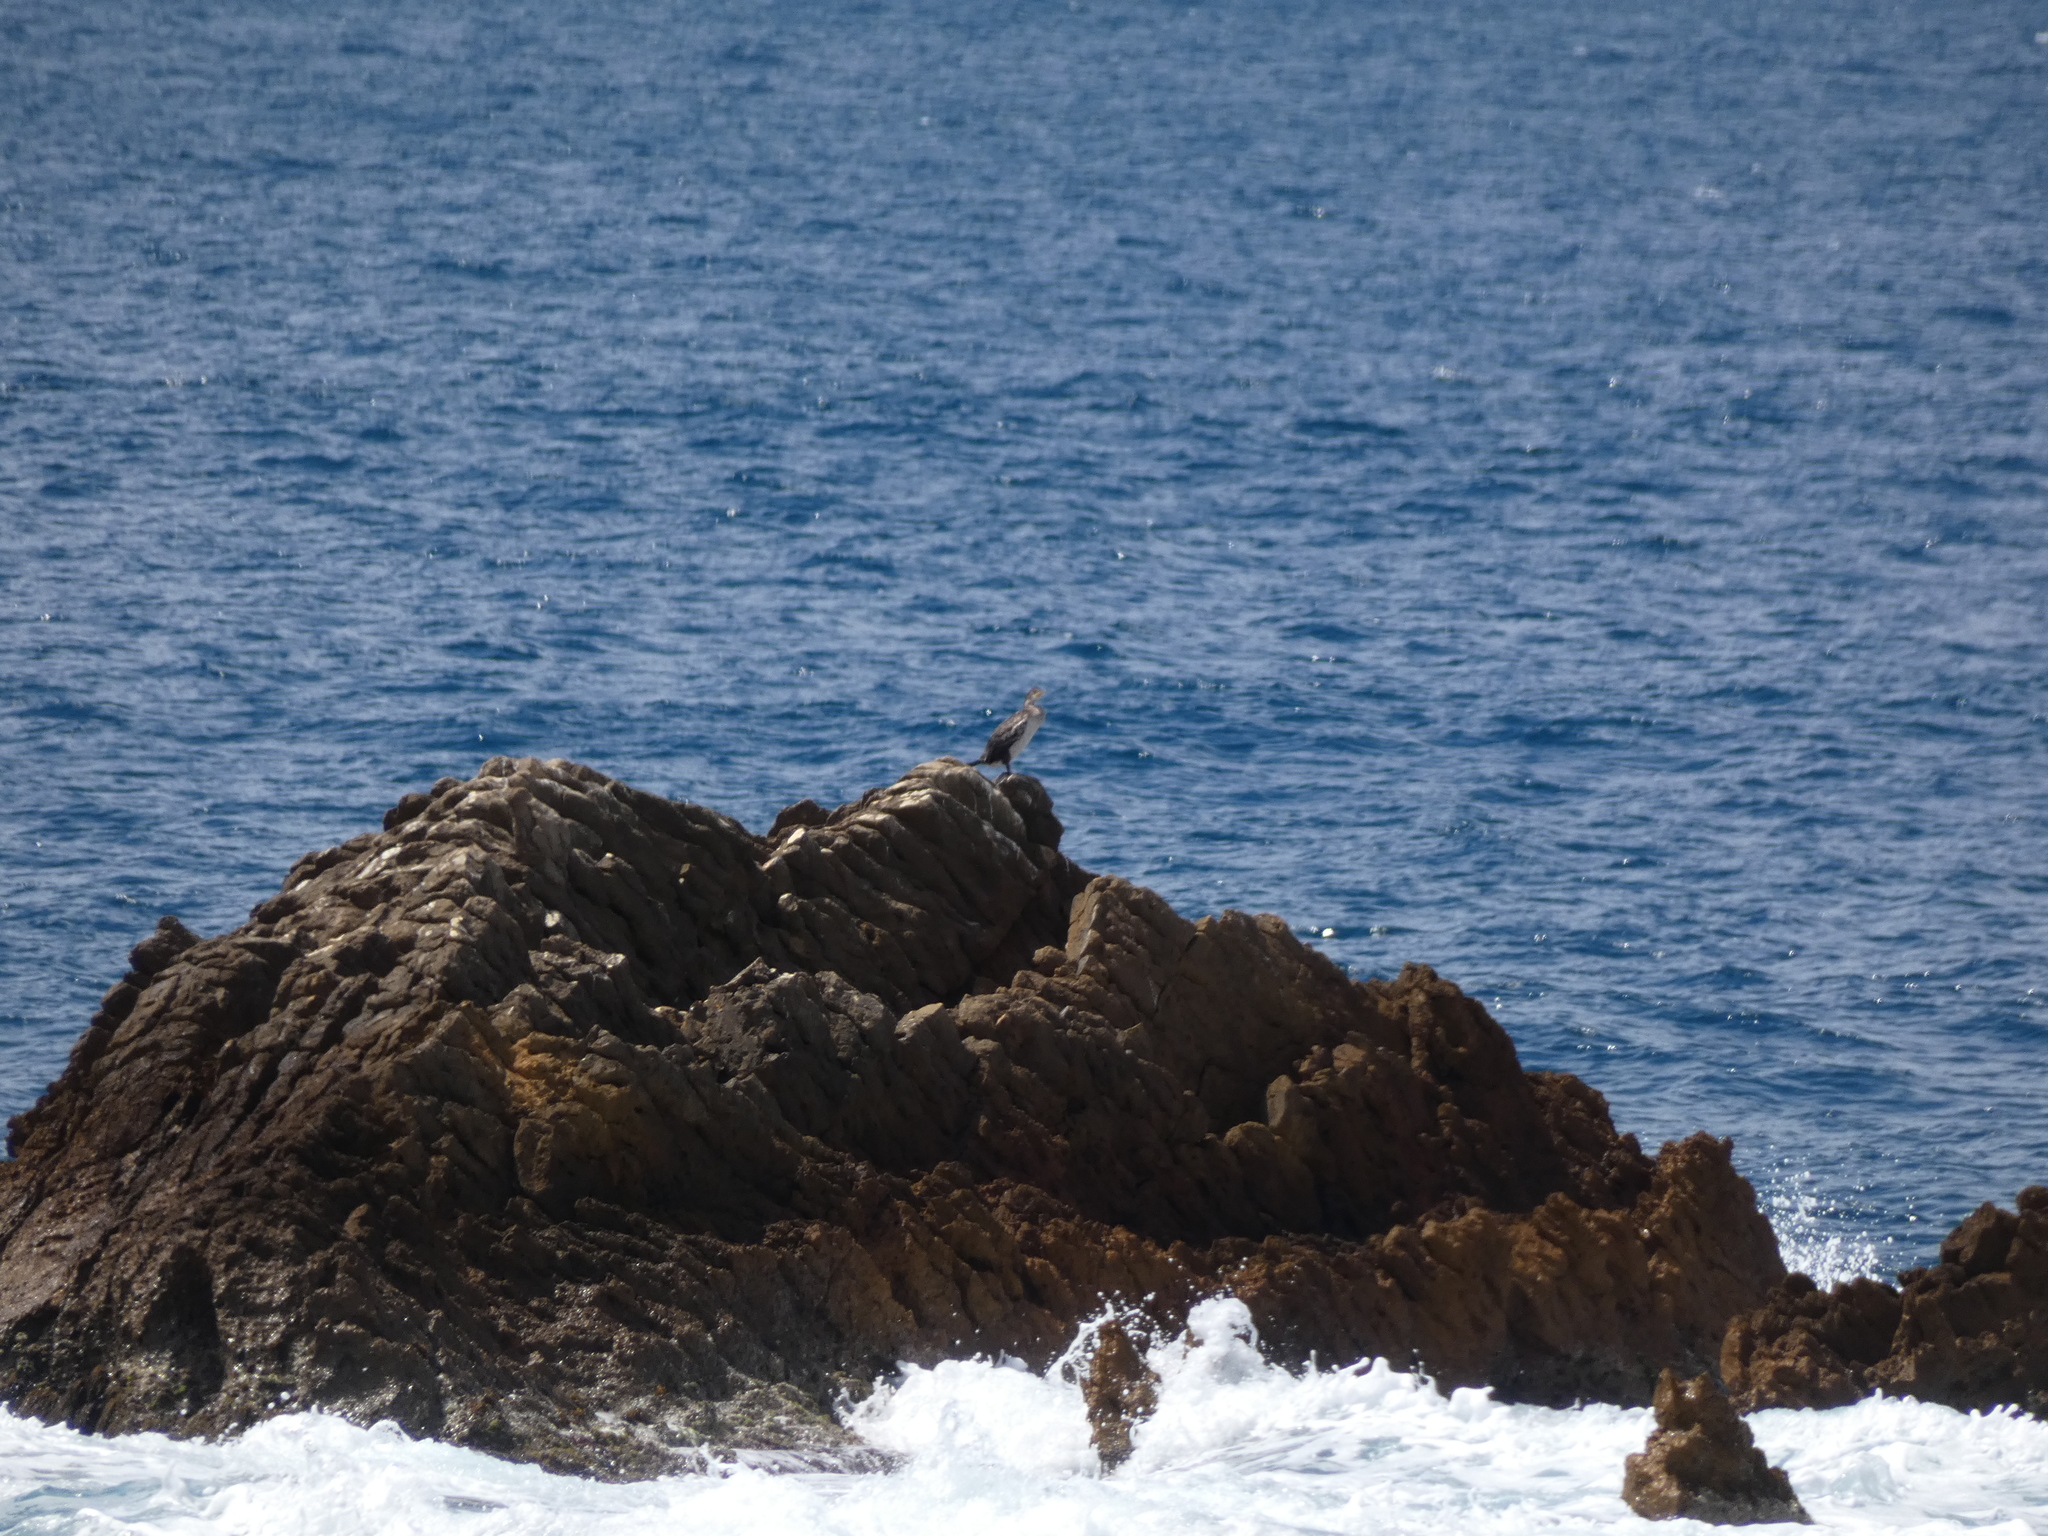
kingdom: Animalia
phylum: Chordata
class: Aves
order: Suliformes
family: Phalacrocoracidae
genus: Phalacrocorax
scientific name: Phalacrocorax aristotelis
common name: European shag
